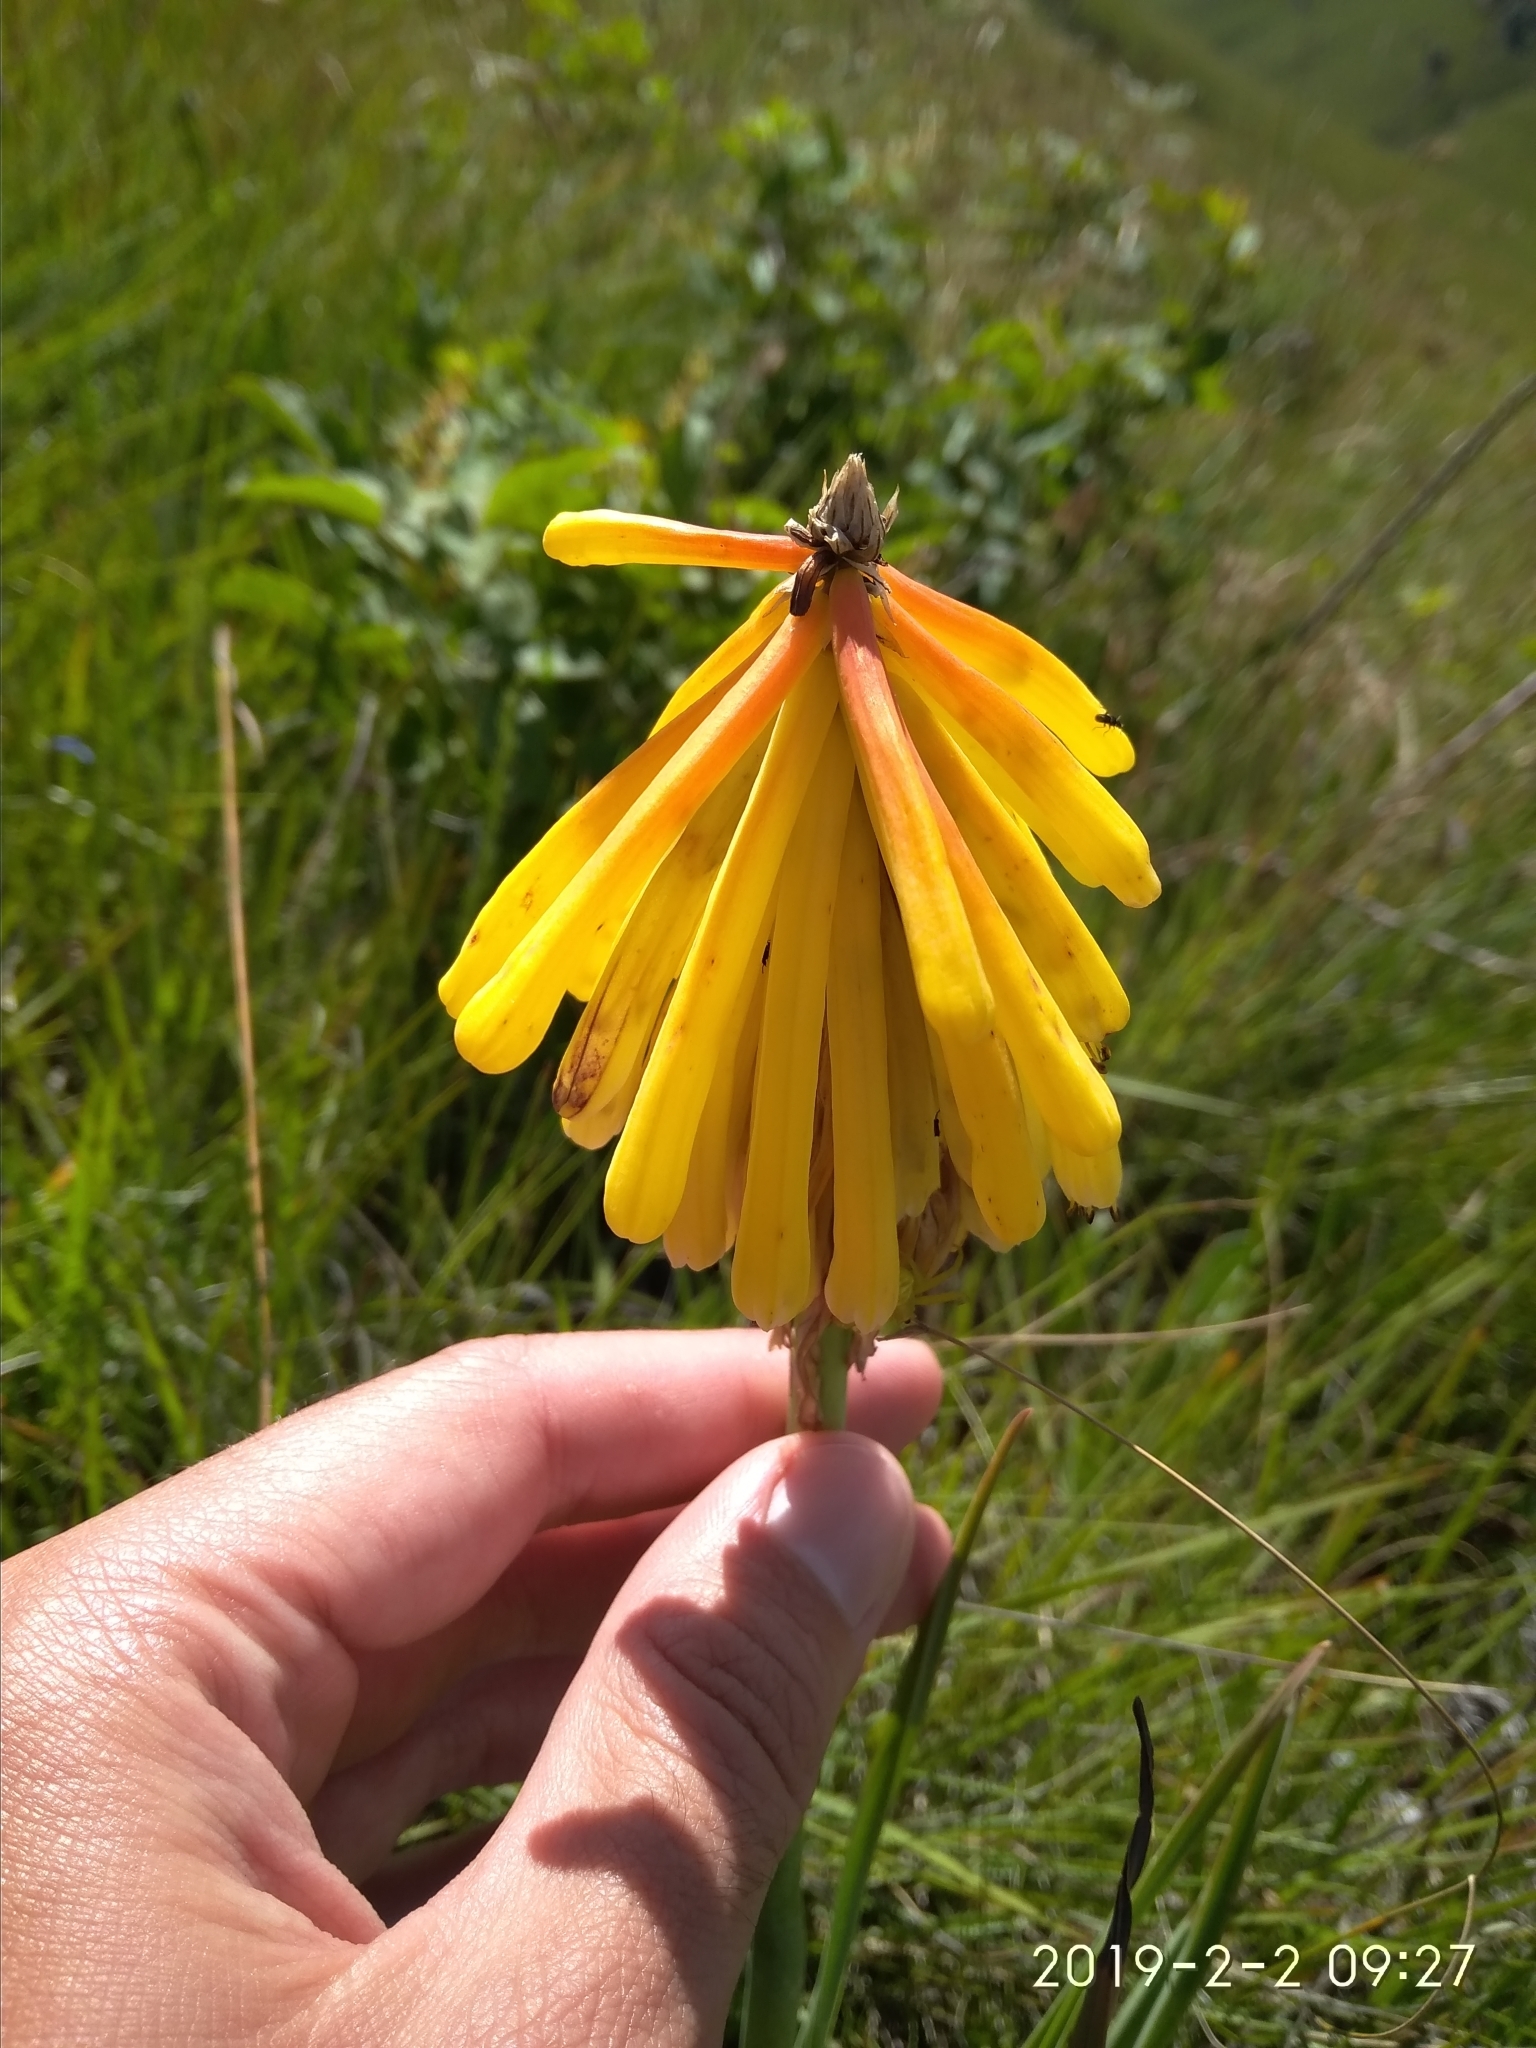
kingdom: Plantae
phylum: Tracheophyta
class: Liliopsida
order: Asparagales
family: Asphodelaceae
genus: Kniphofia
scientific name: Kniphofia porphyrantha
